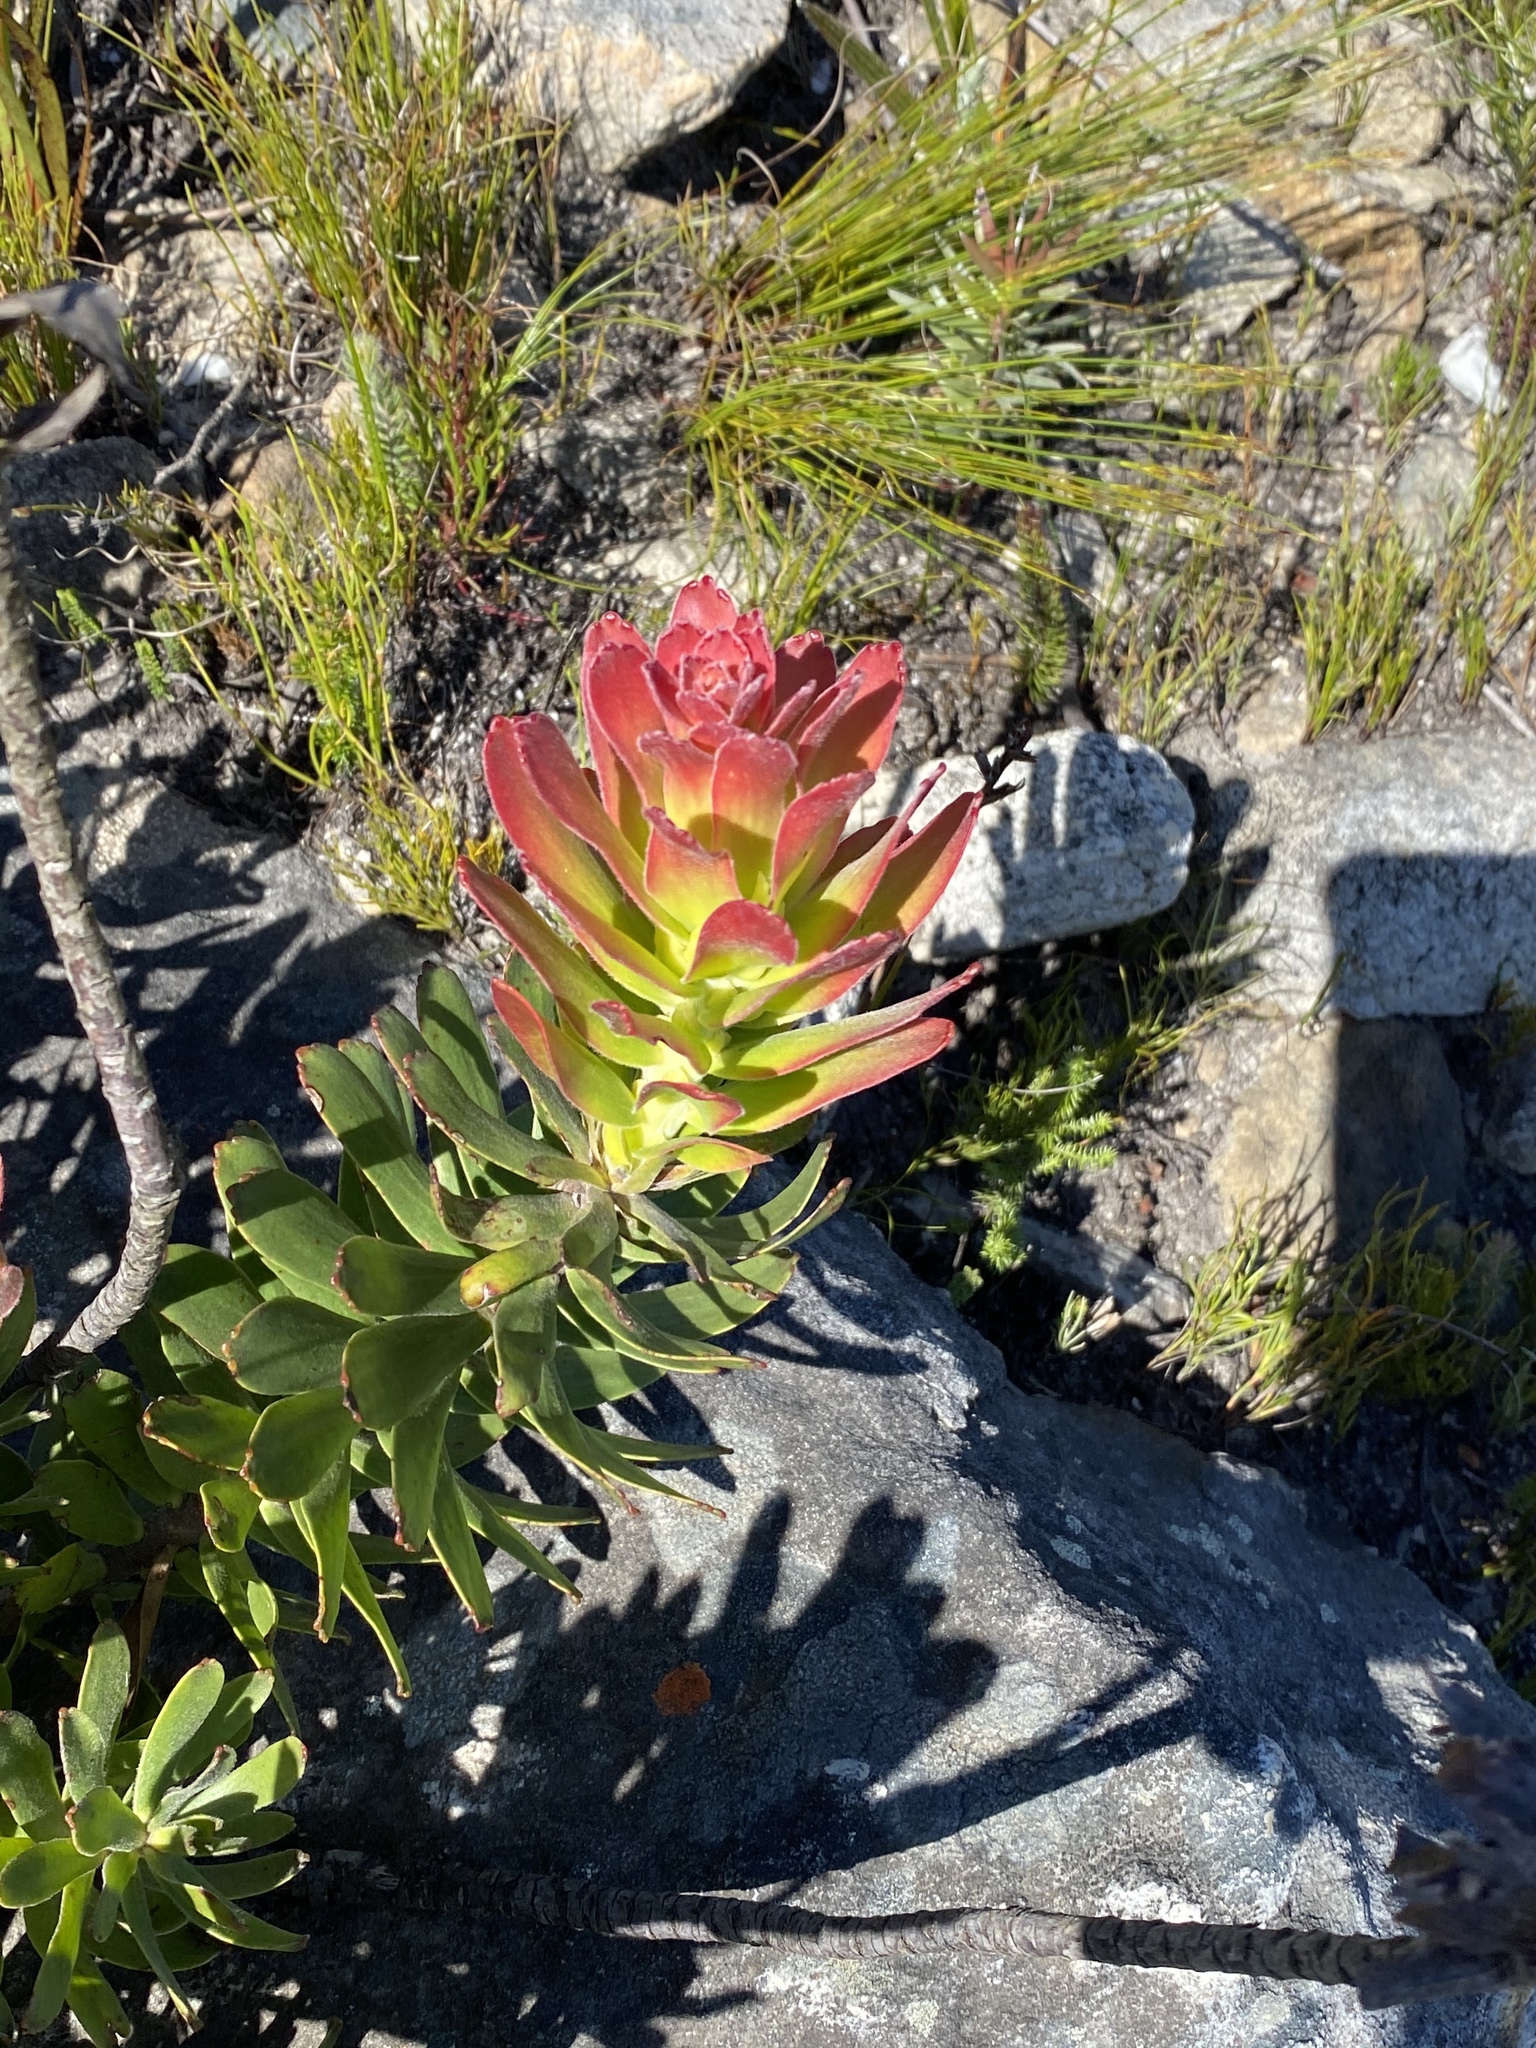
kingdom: Plantae
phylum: Tracheophyta
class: Magnoliopsida
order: Proteales
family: Proteaceae
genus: Mimetes
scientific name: Mimetes cucullatus
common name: Common pagoda
